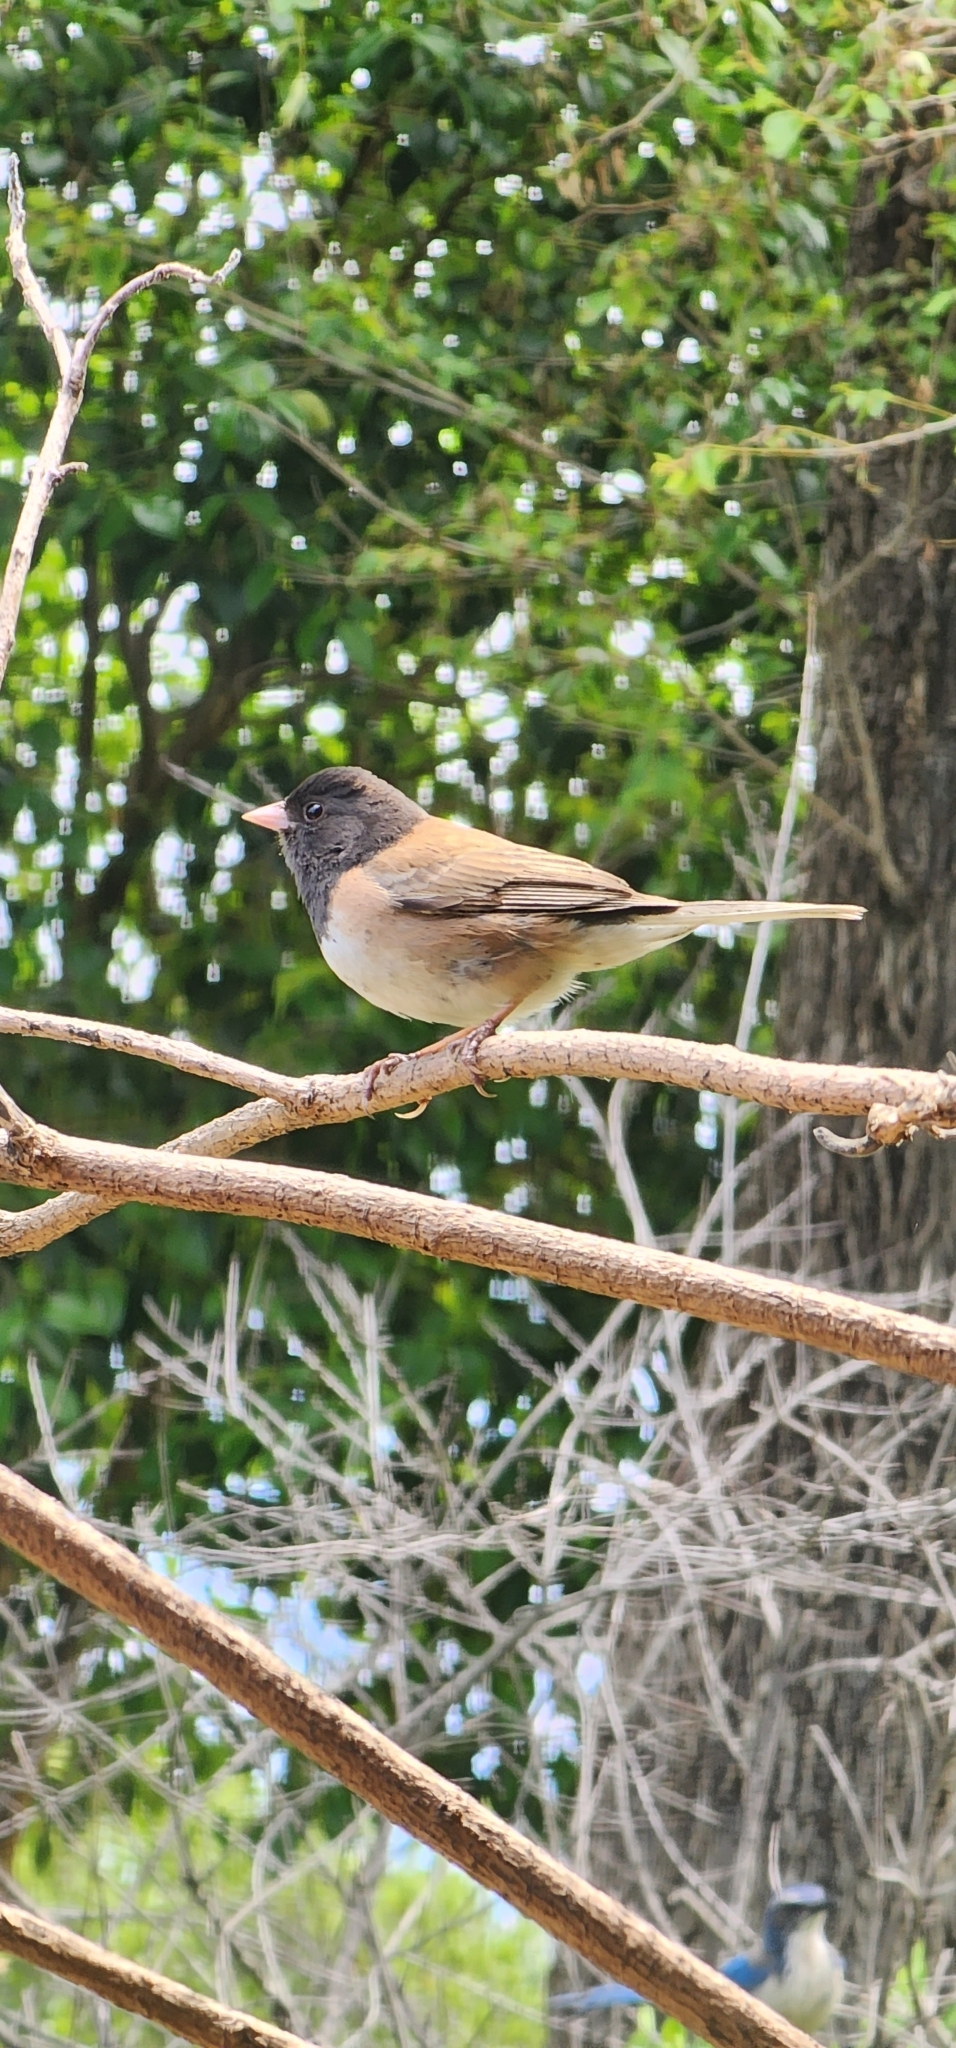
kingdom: Animalia
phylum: Chordata
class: Aves
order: Passeriformes
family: Passerellidae
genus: Junco
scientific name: Junco hyemalis
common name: Dark-eyed junco
